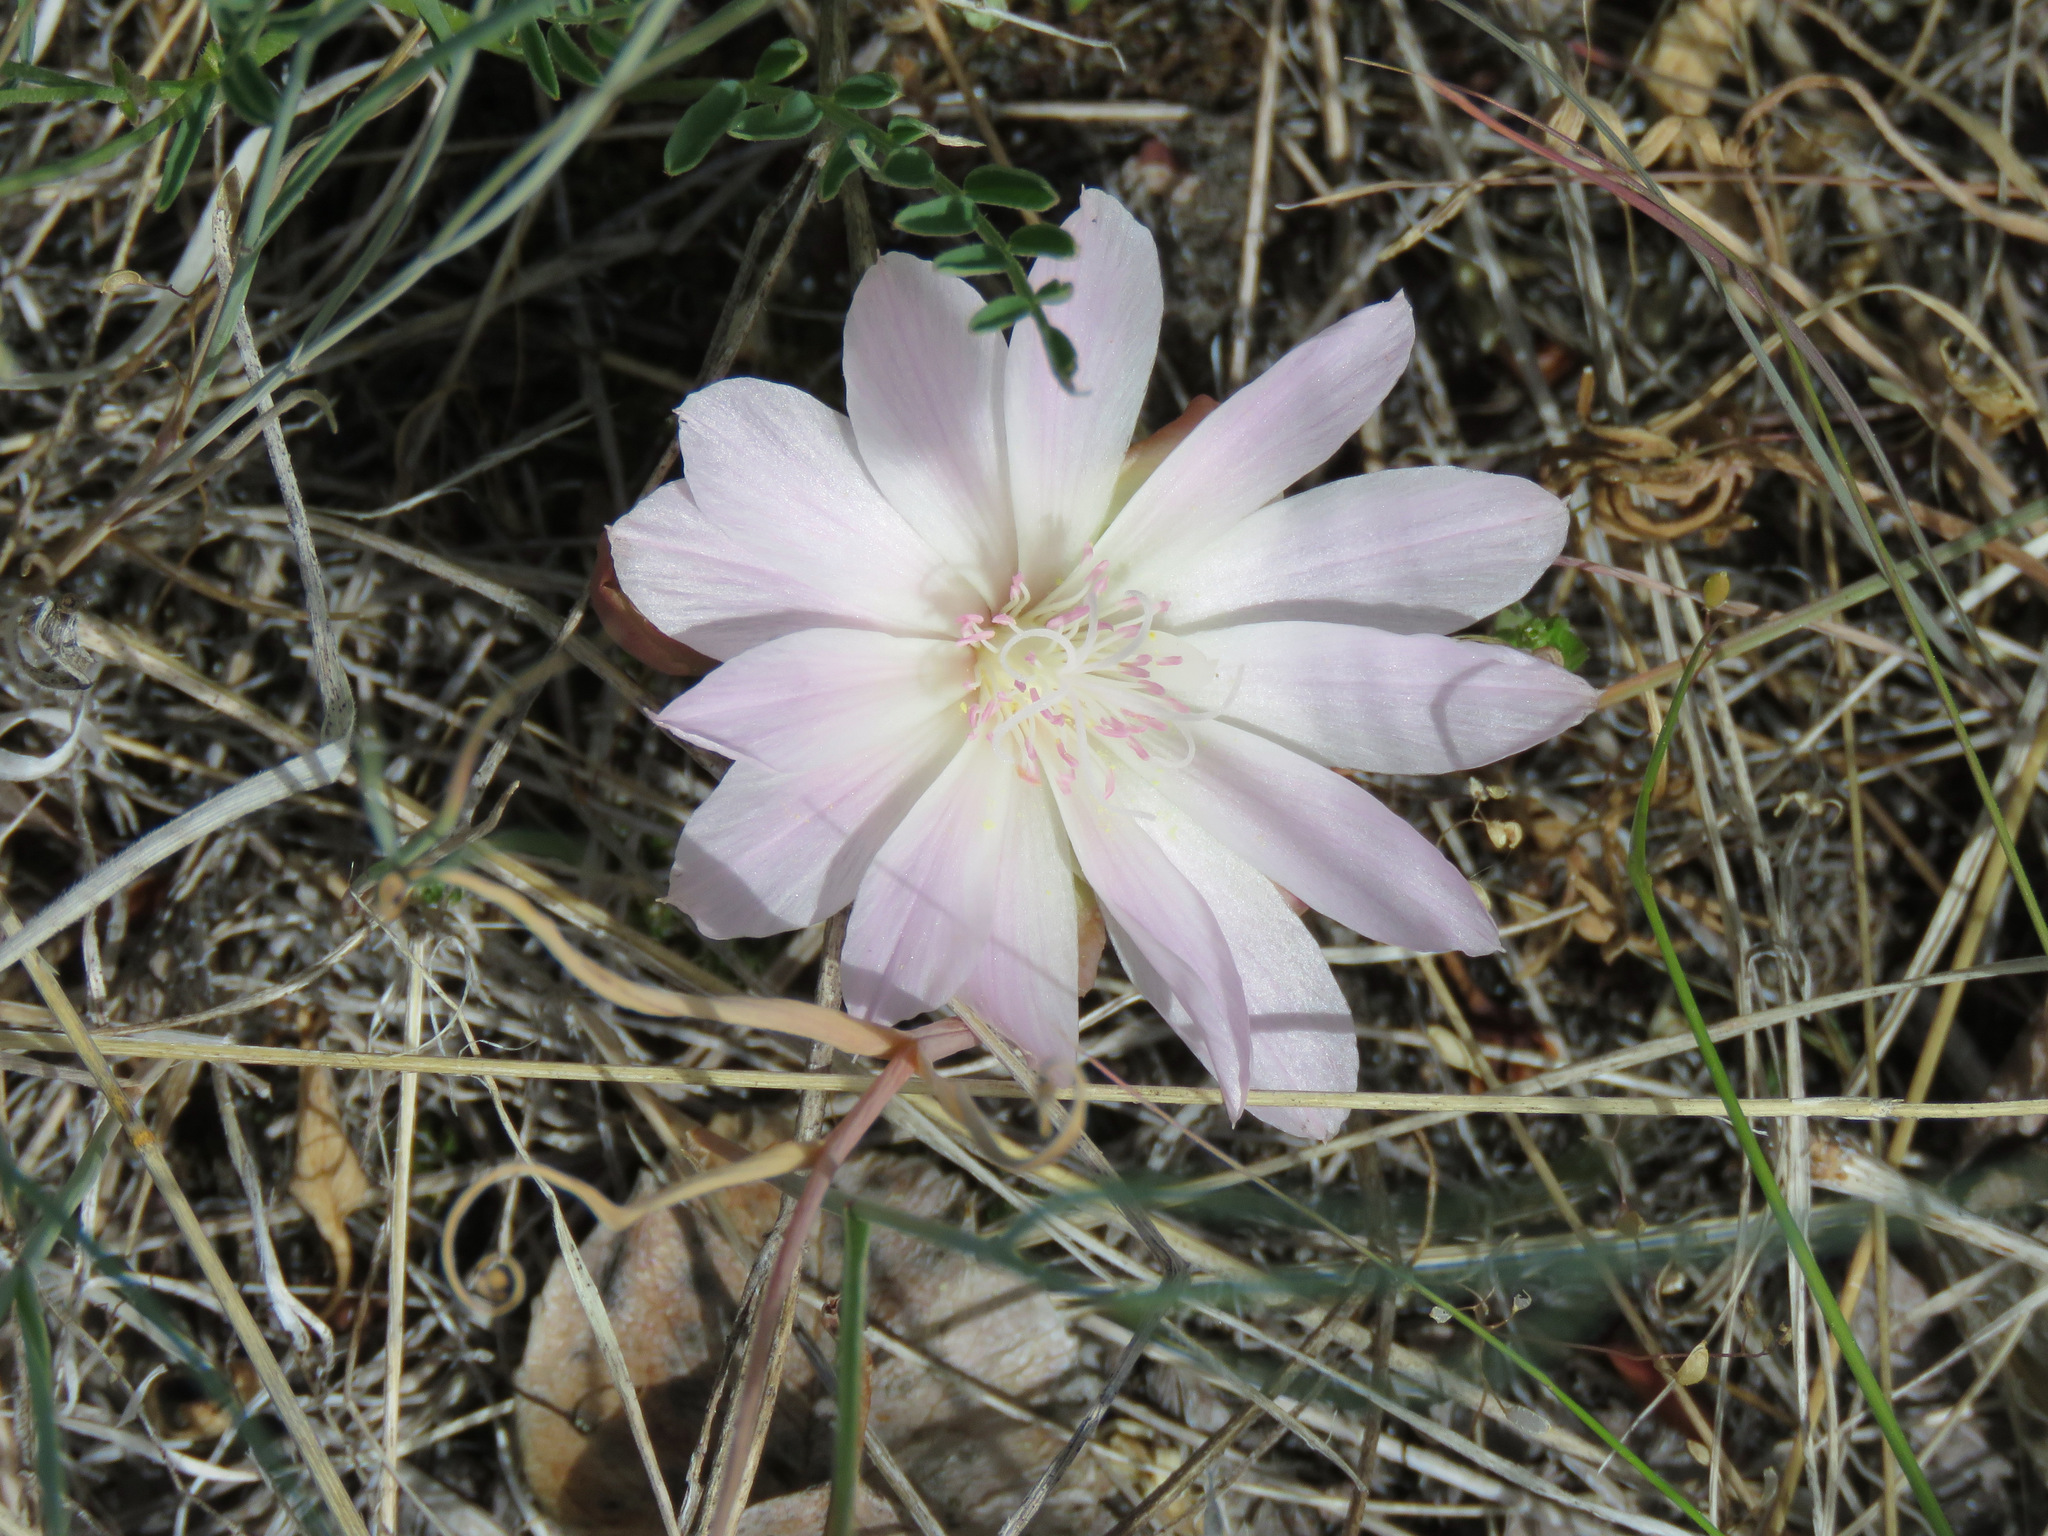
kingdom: Plantae
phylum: Tracheophyta
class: Magnoliopsida
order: Caryophyllales
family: Montiaceae
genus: Lewisia
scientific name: Lewisia rediviva
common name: Bitter-root
